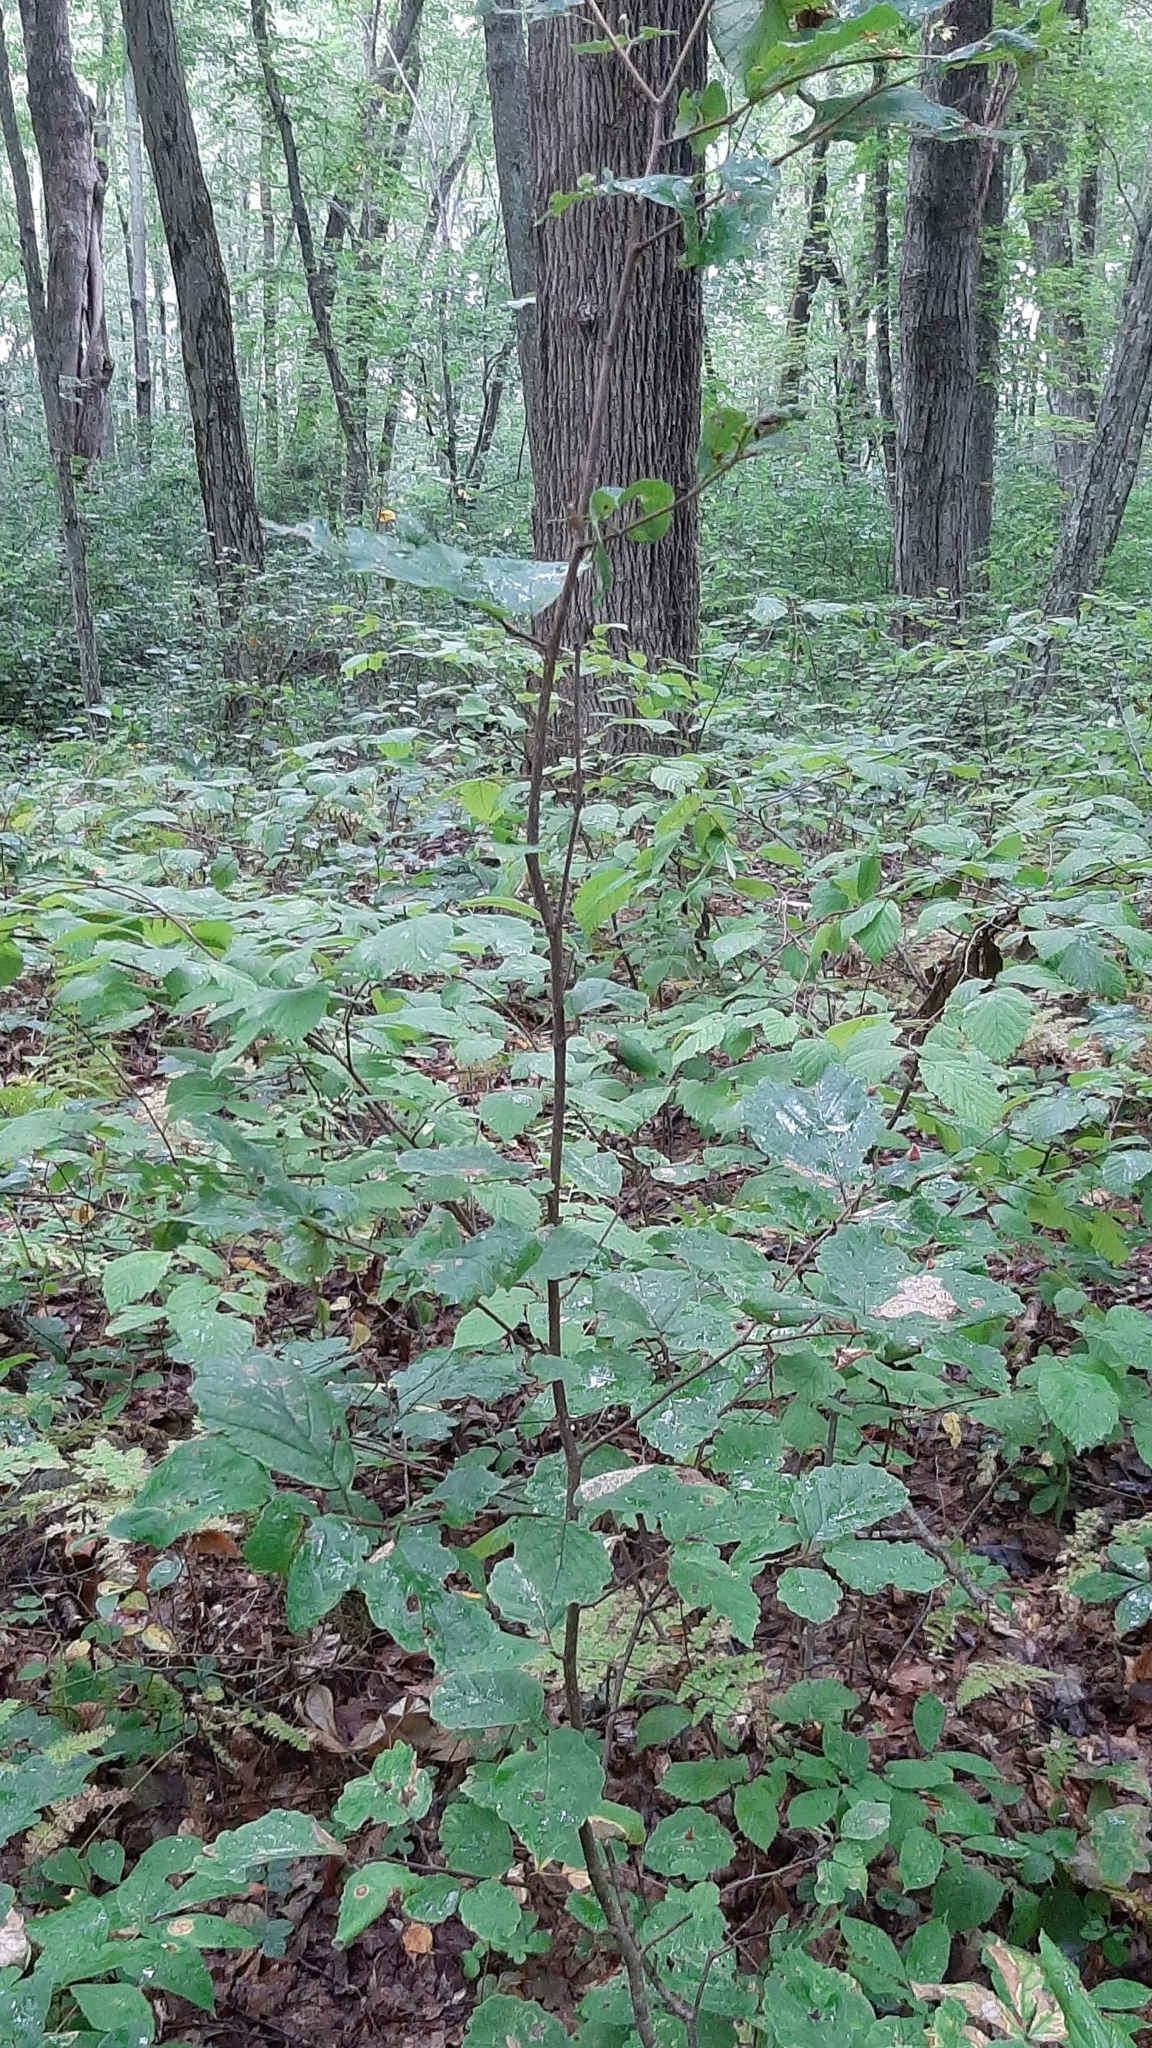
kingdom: Plantae
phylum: Tracheophyta
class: Magnoliopsida
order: Saxifragales
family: Hamamelidaceae
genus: Hamamelis
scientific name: Hamamelis virginiana
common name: Witch-hazel
